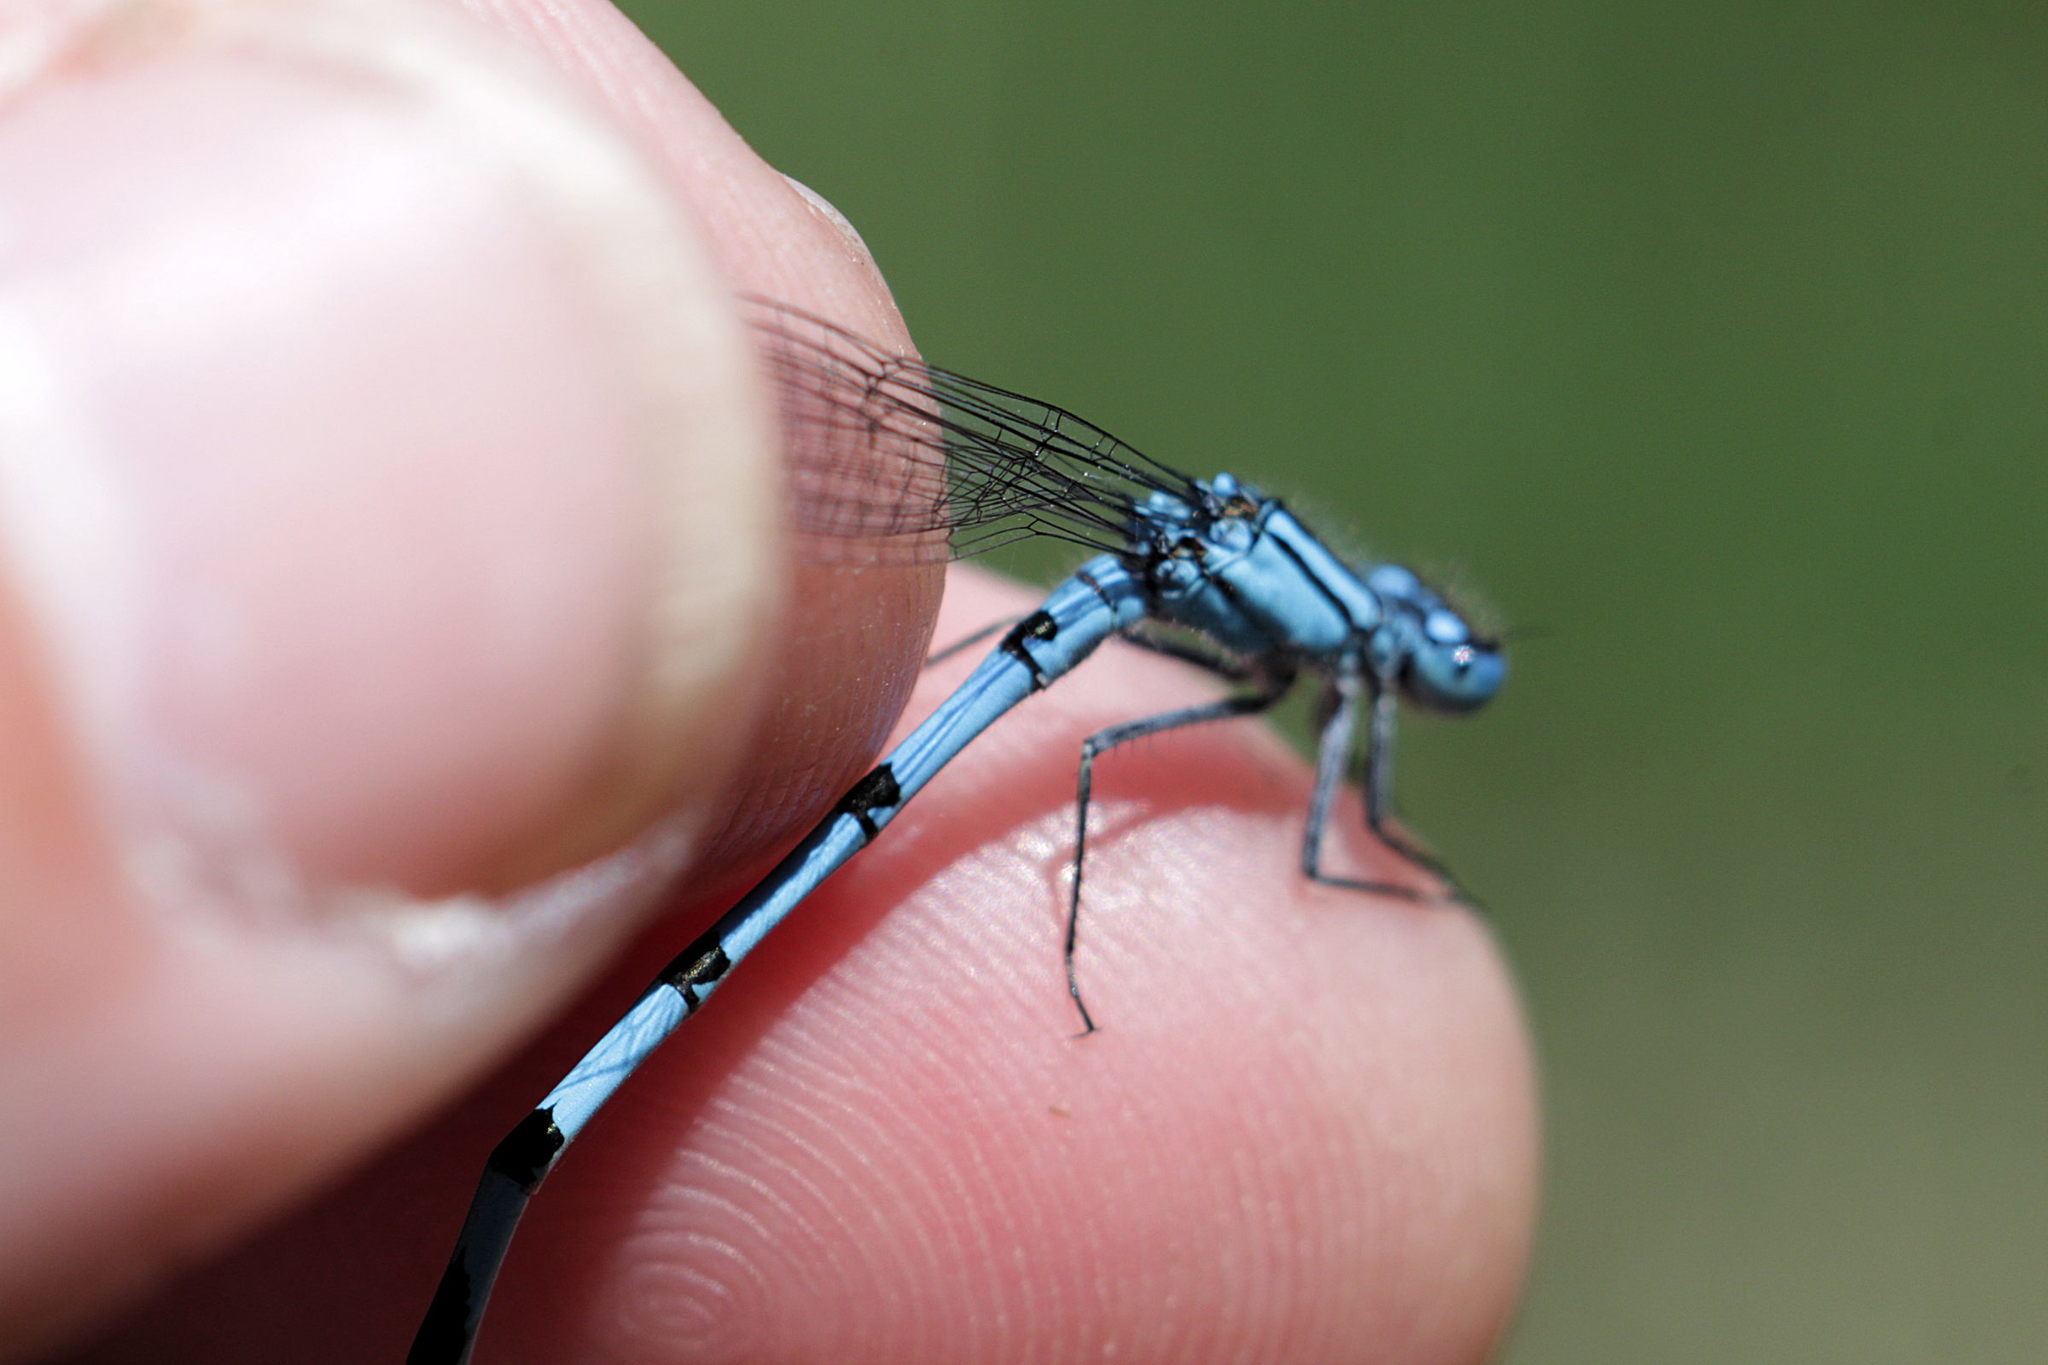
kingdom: Animalia
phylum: Arthropoda
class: Insecta
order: Odonata
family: Coenagrionidae
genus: Enallagma
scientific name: Enallagma cyathigerum
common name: Common blue damselfly
